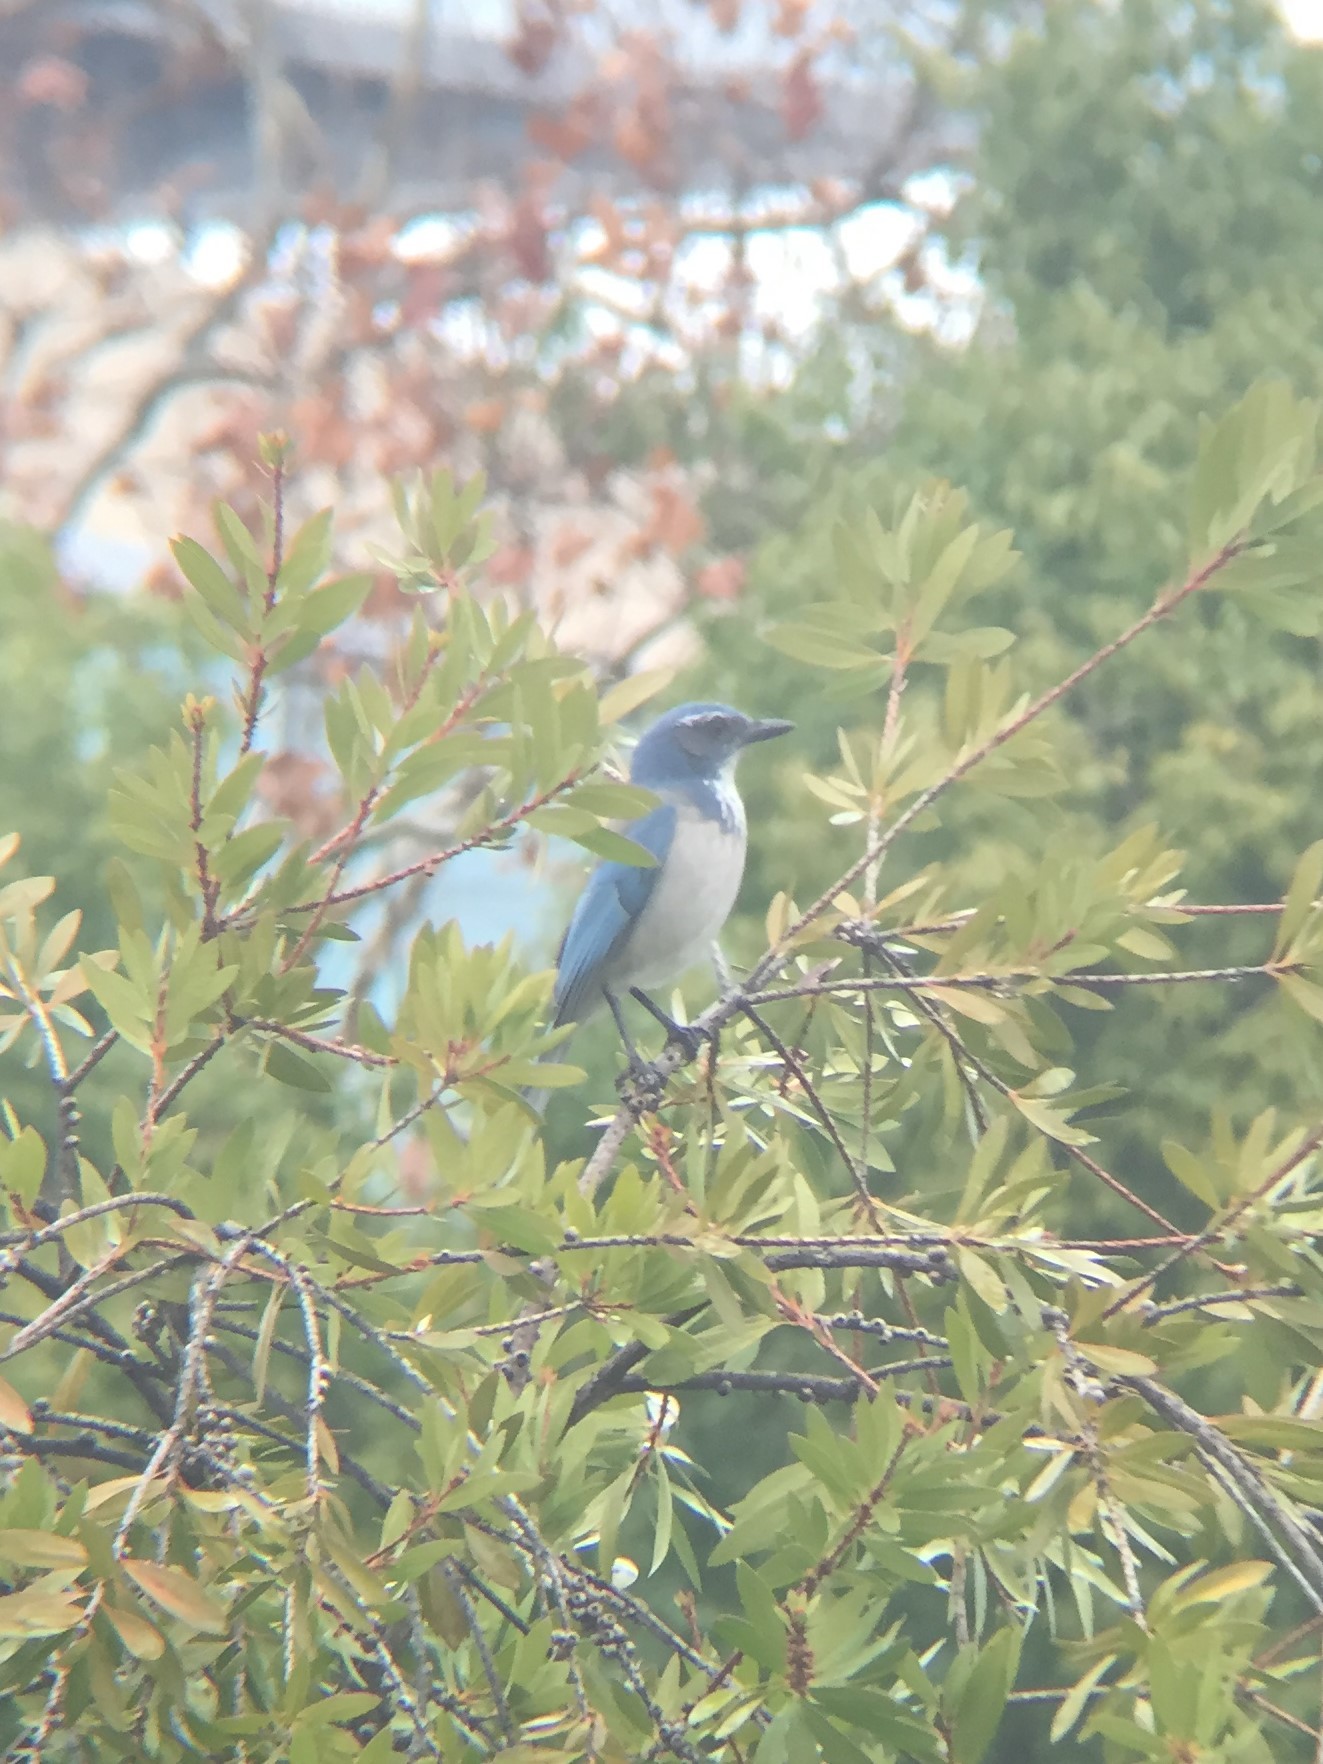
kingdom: Animalia
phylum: Chordata
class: Aves
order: Passeriformes
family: Corvidae
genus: Aphelocoma
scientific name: Aphelocoma californica
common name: California scrub-jay
